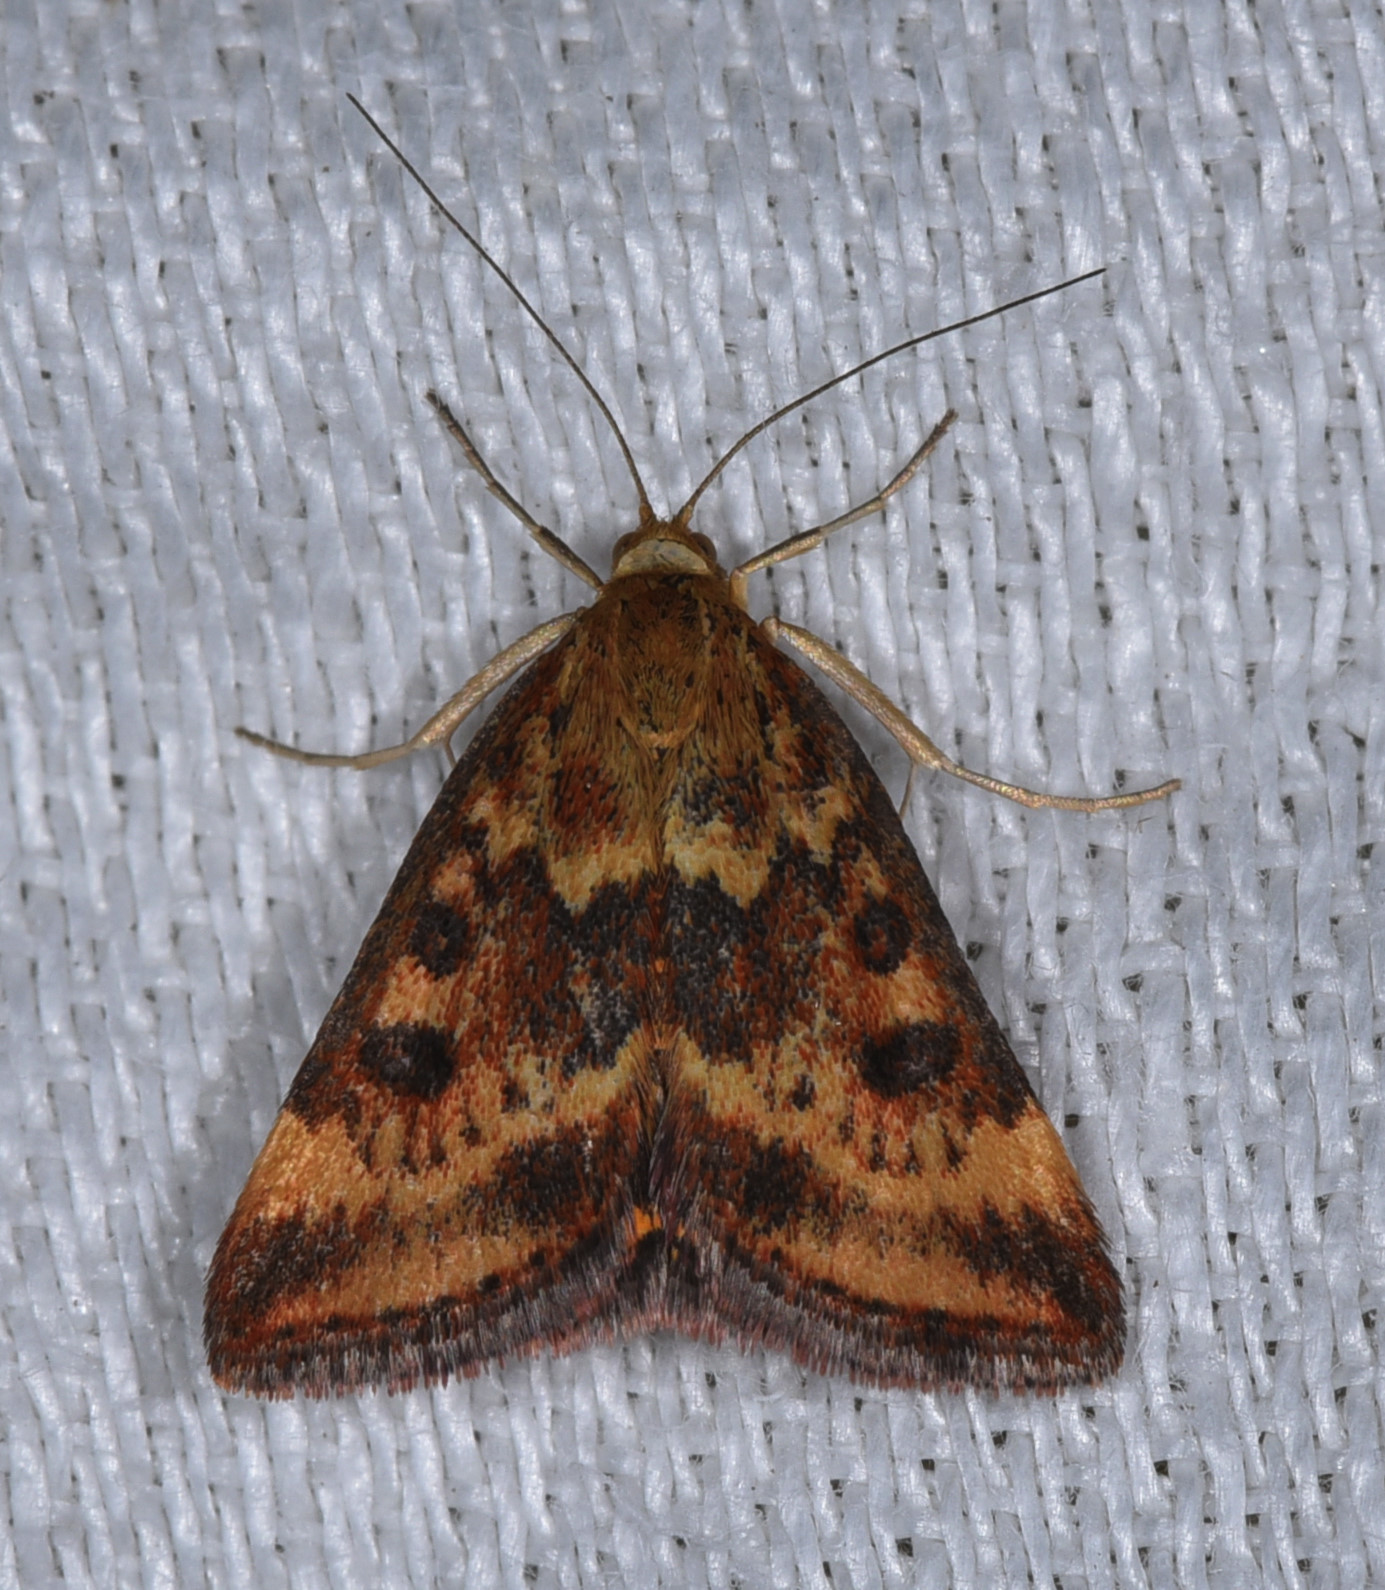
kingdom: Animalia
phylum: Arthropoda
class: Insecta
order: Lepidoptera
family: Crambidae
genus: Pyrausta
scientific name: Pyrausta californicalis
